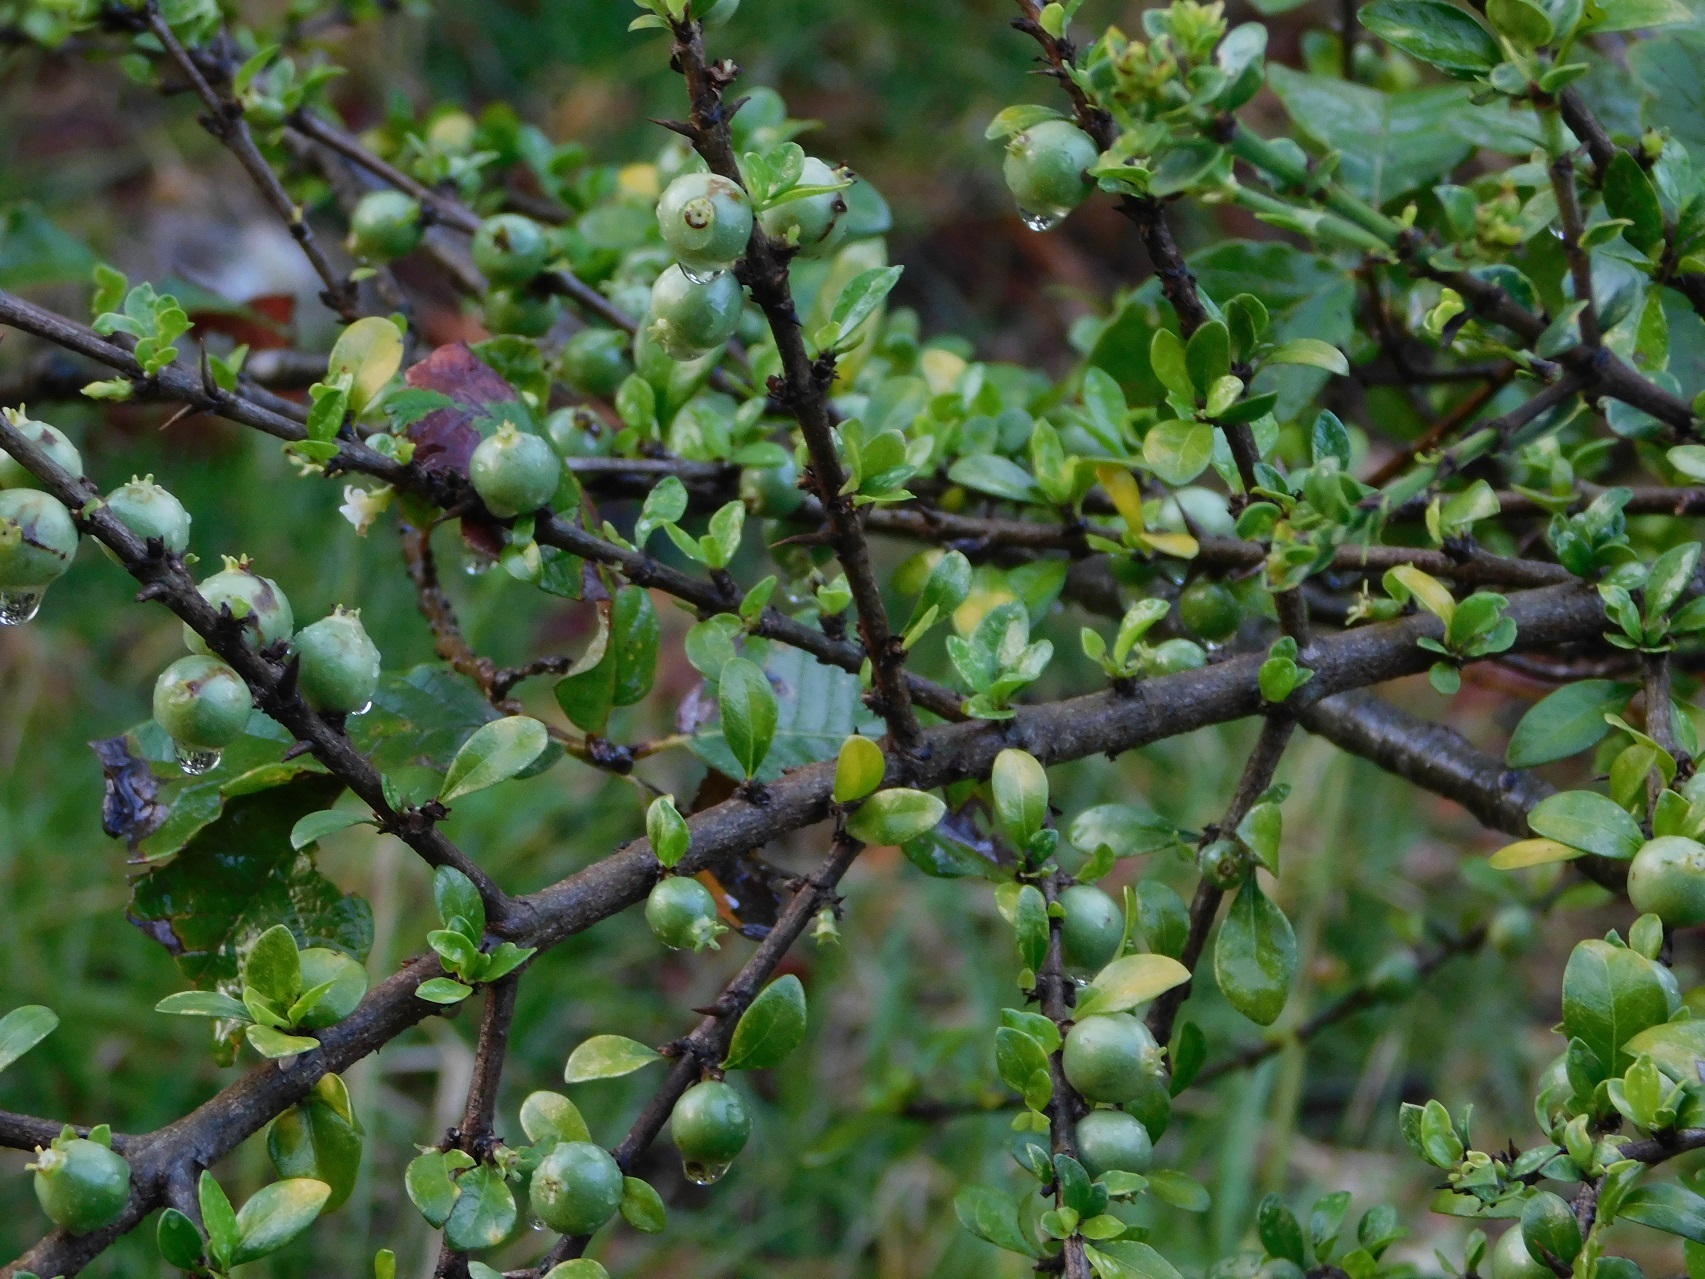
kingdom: Plantae
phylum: Tracheophyta
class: Magnoliopsida
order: Gentianales
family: Rubiaceae
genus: Randia
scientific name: Randia chiapensis
